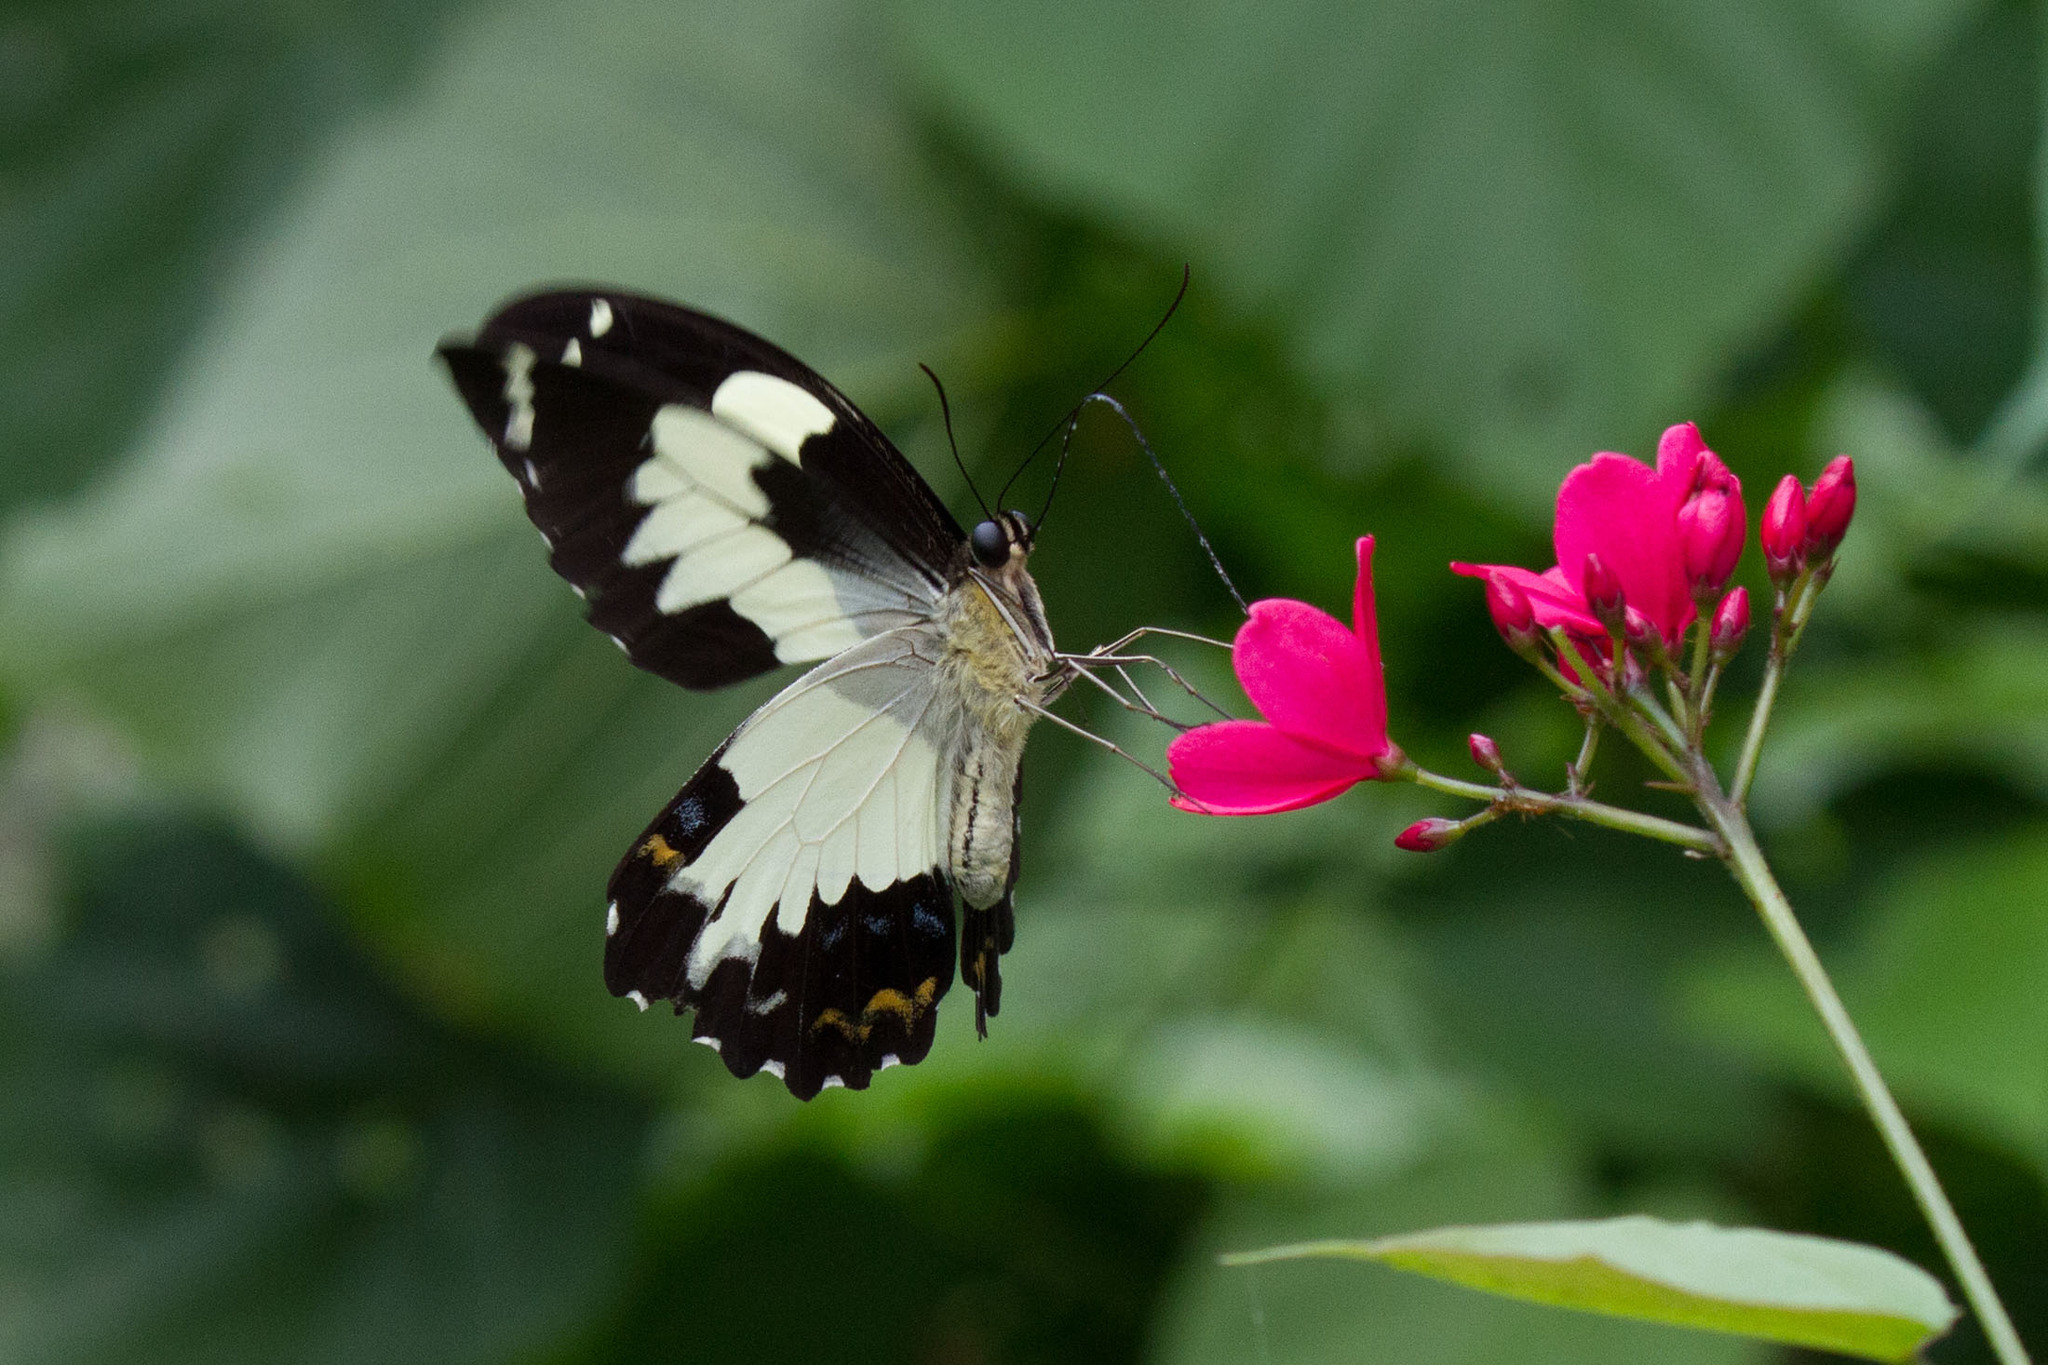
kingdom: Animalia
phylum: Arthropoda
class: Insecta
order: Lepidoptera
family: Papilionidae
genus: Papilio
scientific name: Papilio euchenor
